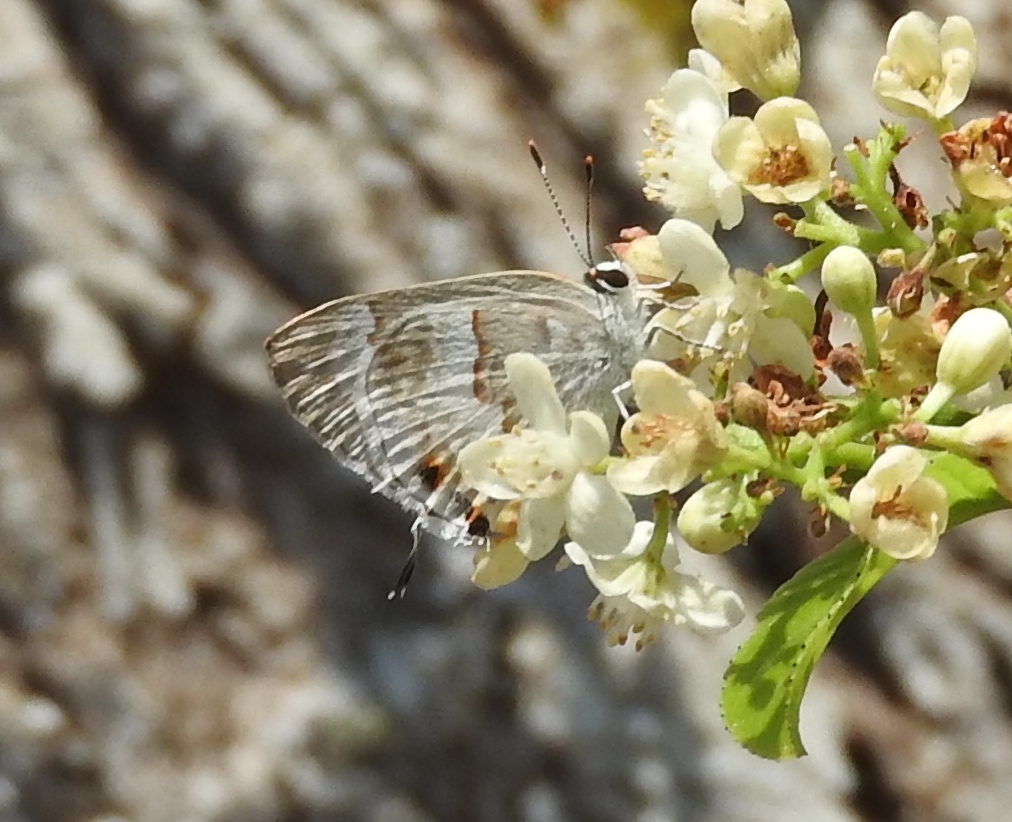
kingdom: Animalia
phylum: Arthropoda
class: Insecta
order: Lepidoptera
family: Lycaenidae
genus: Strymon
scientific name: Strymon albata
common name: White scrub-hairstreak
